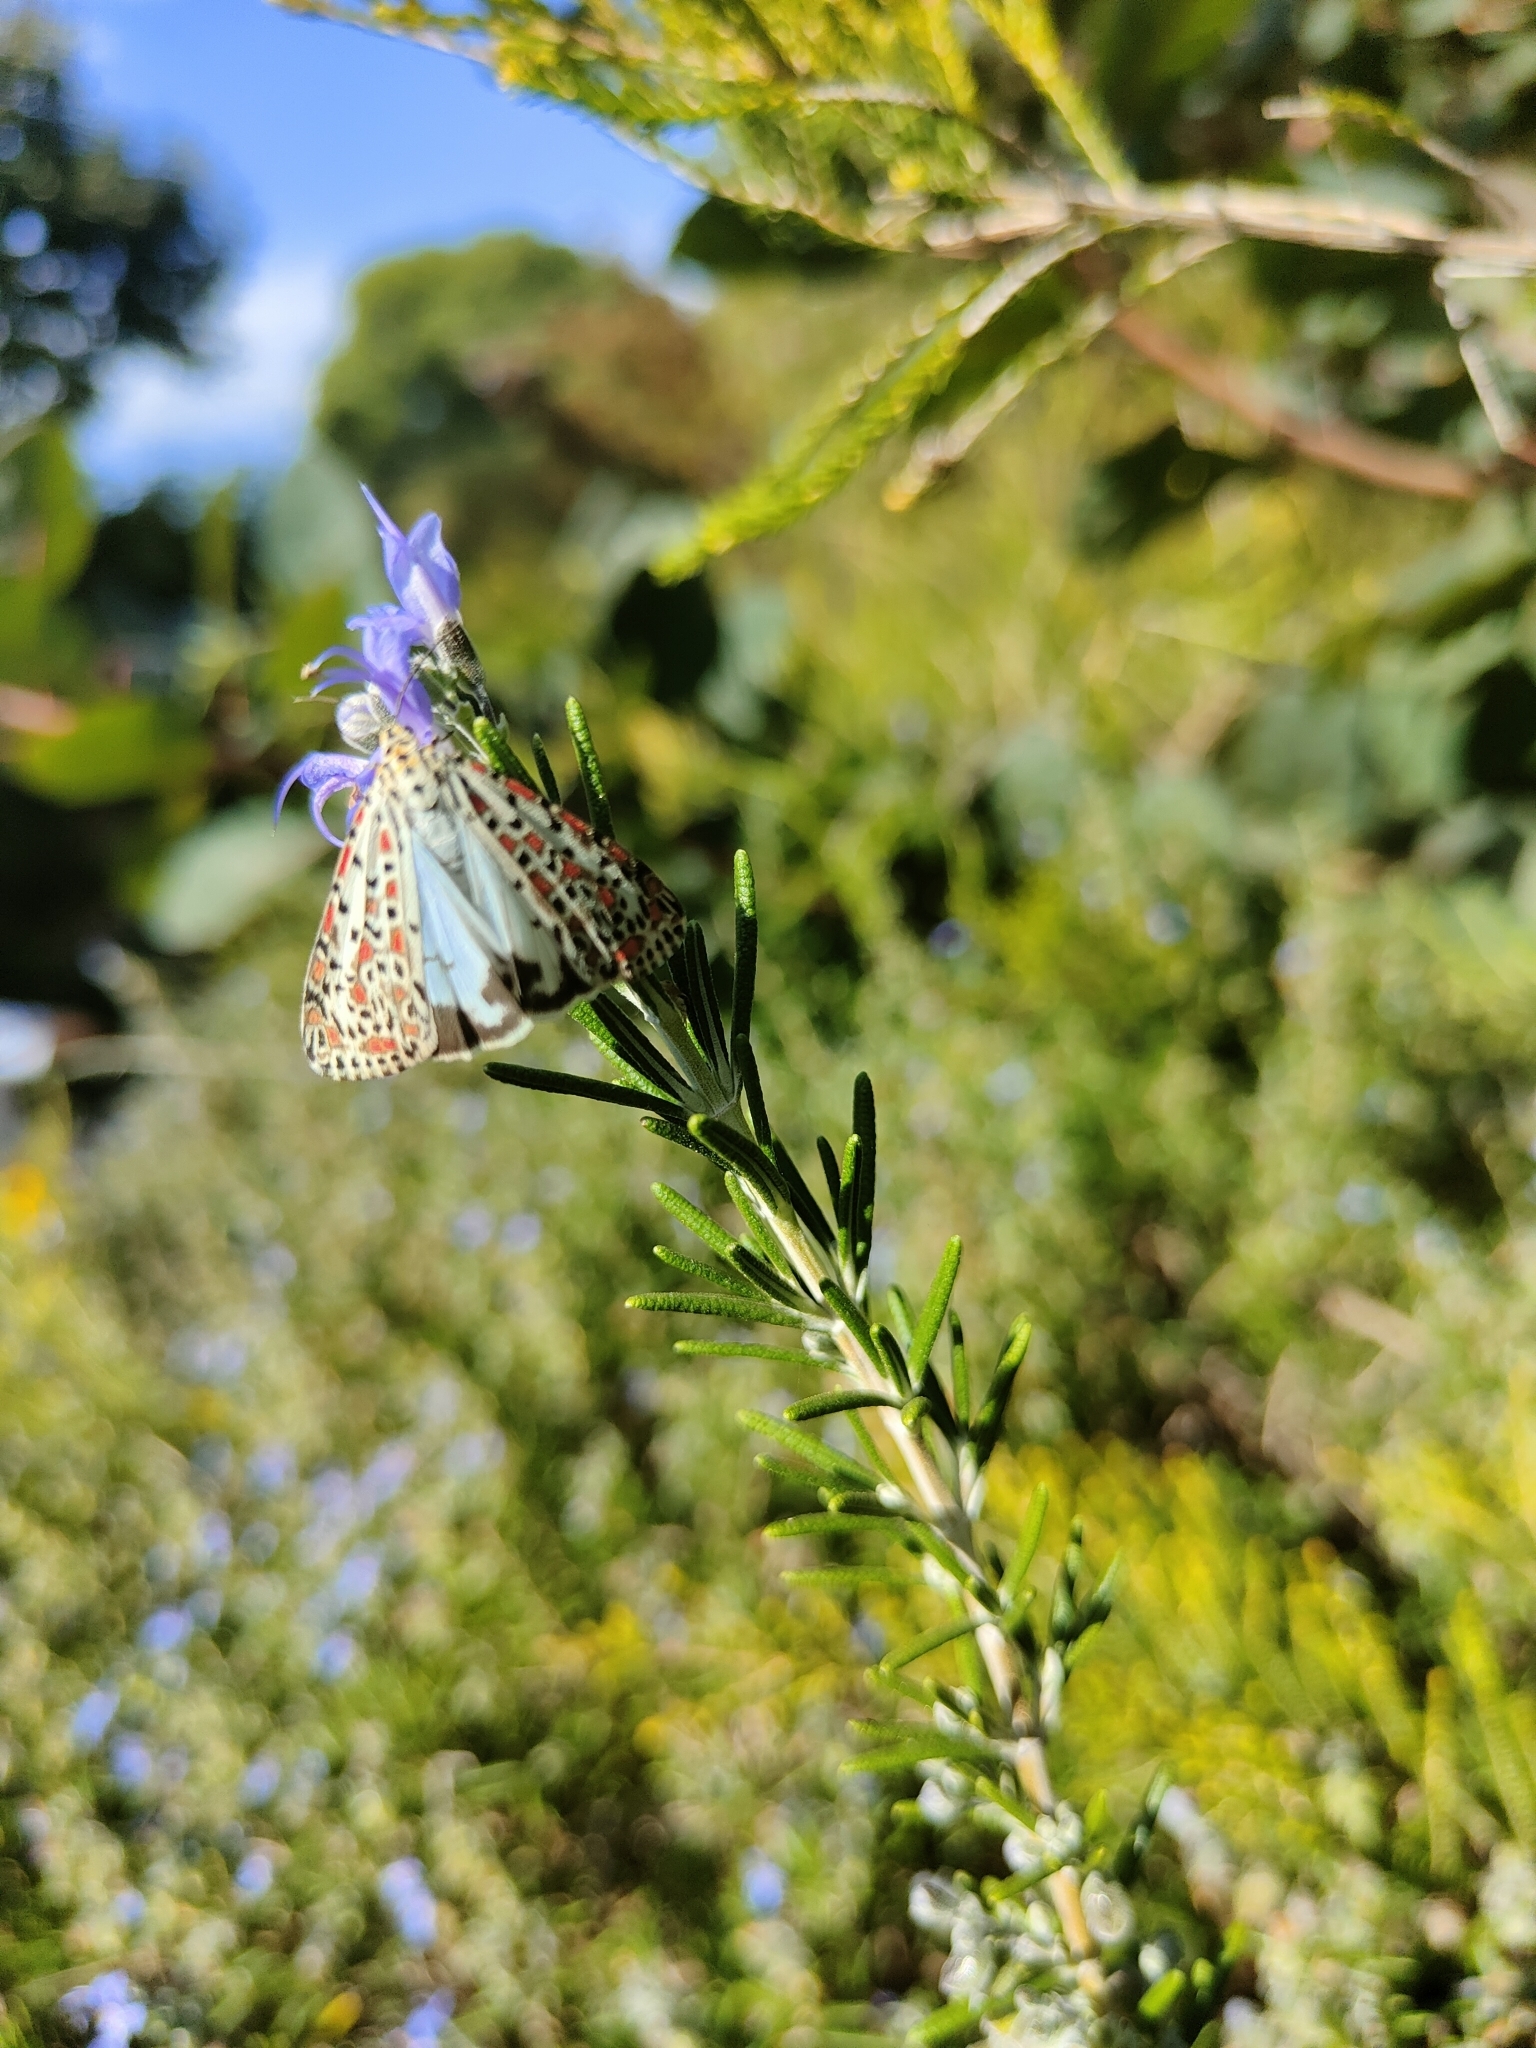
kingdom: Animalia
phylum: Arthropoda
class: Insecta
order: Lepidoptera
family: Erebidae
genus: Utetheisa
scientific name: Utetheisa pulchelloides
